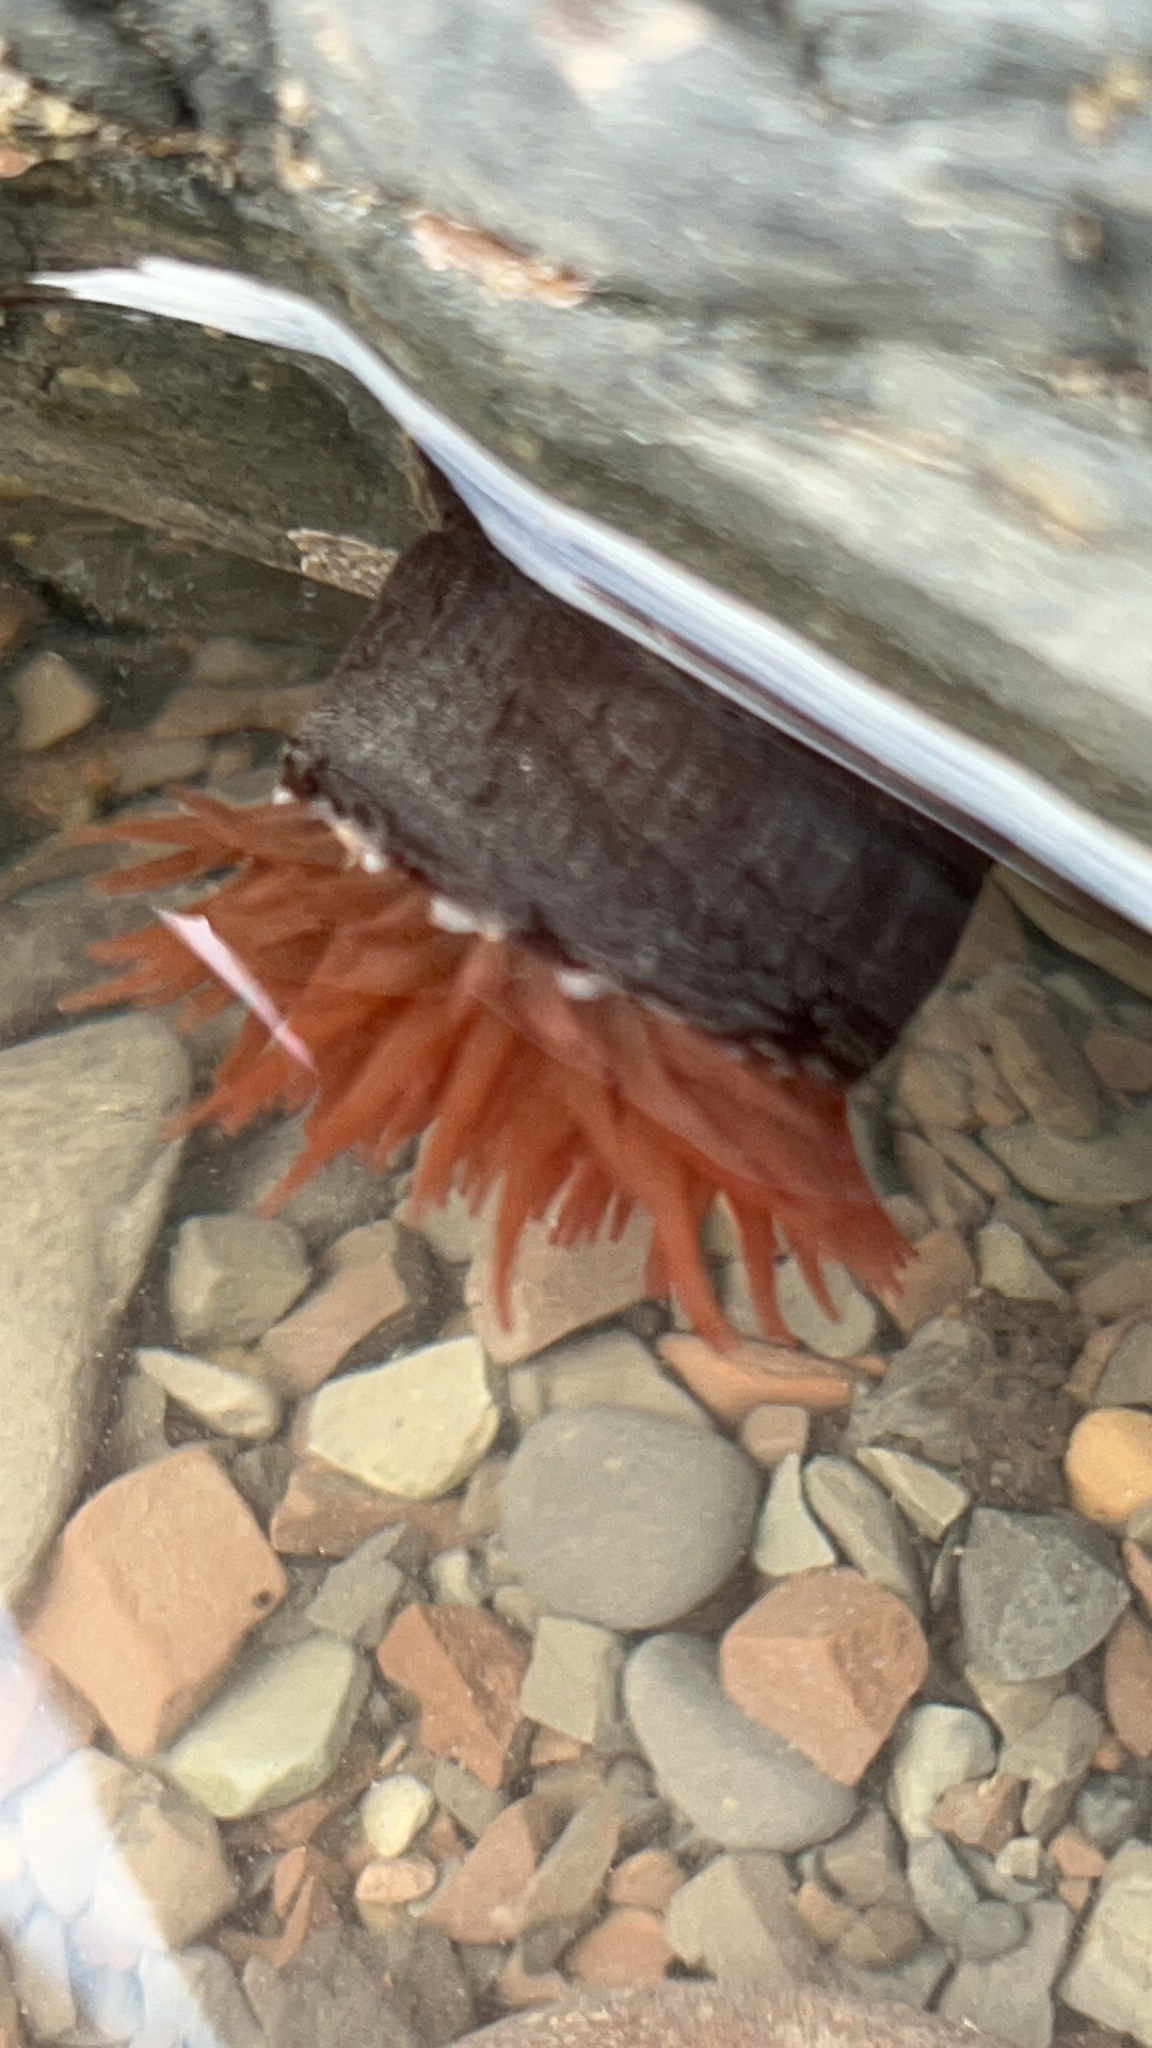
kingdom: Animalia
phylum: Cnidaria
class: Anthozoa
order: Actiniaria
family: Actiniidae
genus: Actinia
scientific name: Actinia equina
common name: Beadlet anemone
